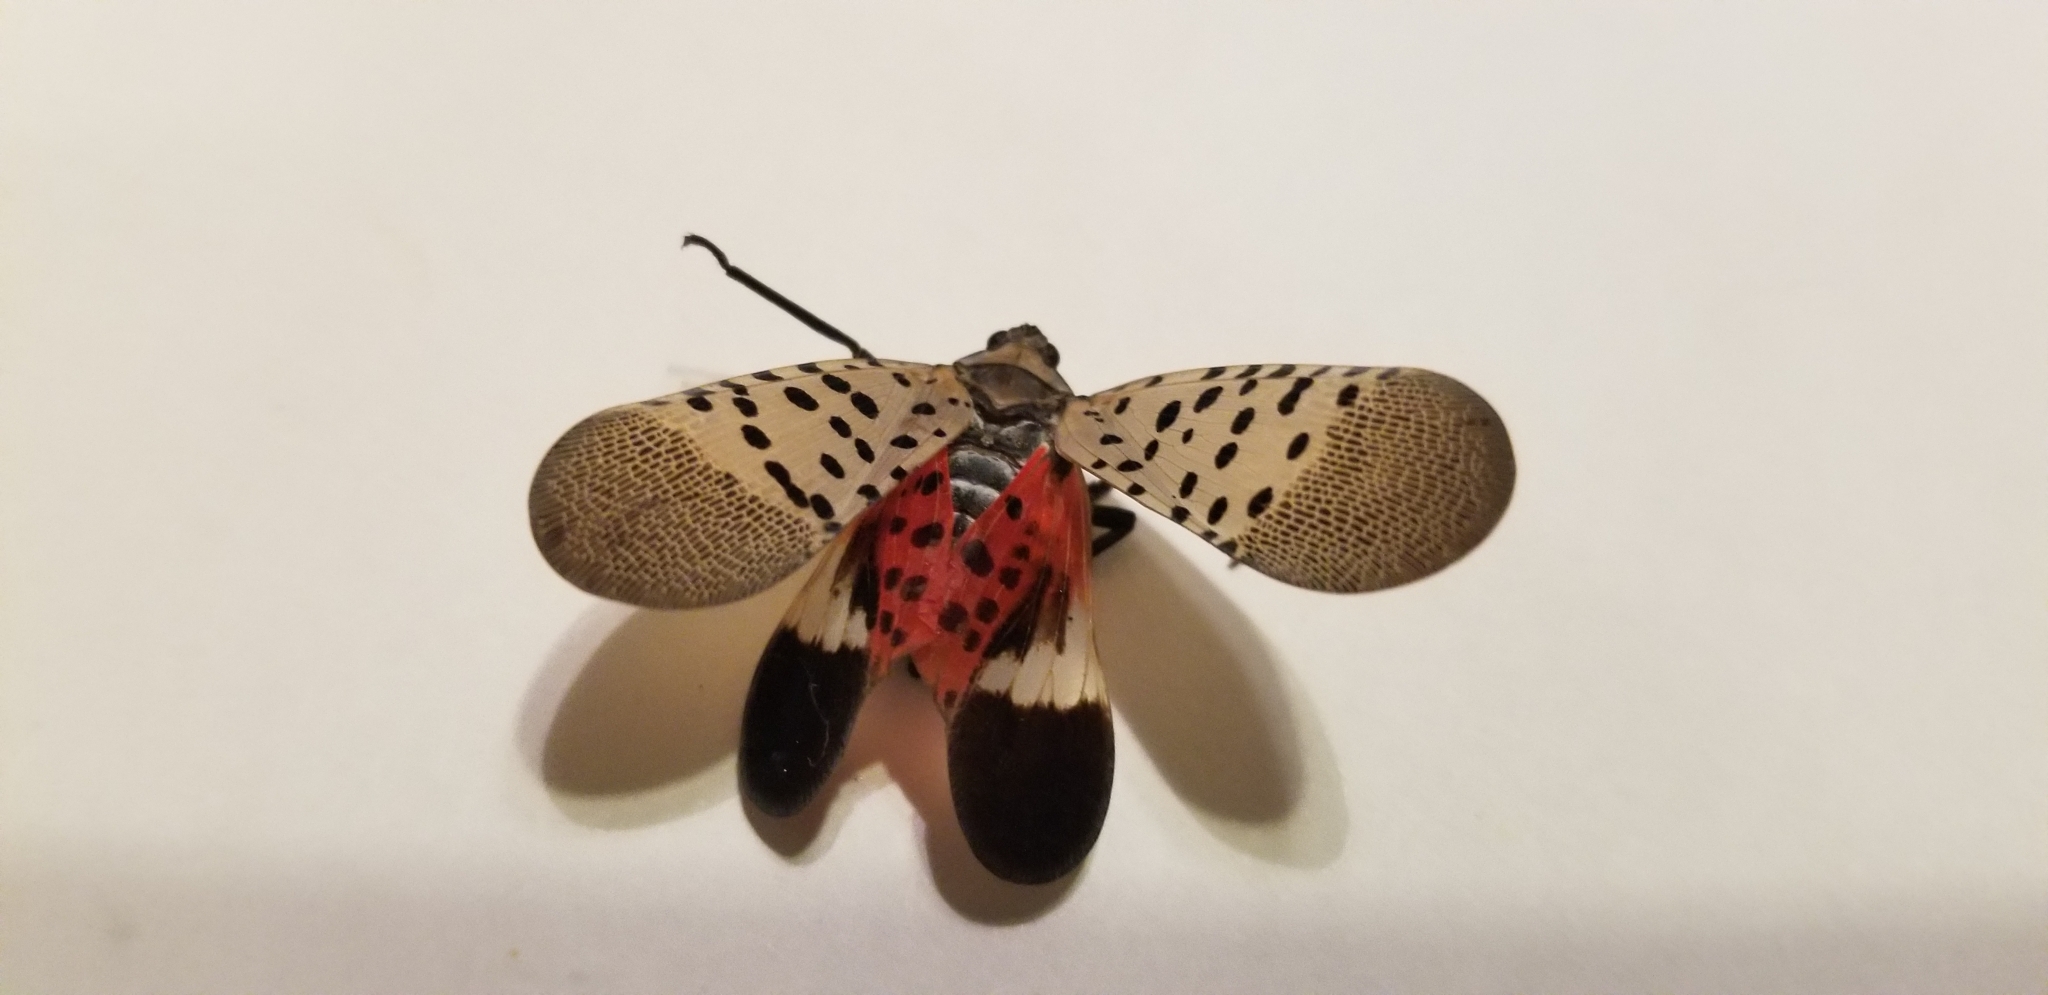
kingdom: Animalia
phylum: Arthropoda
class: Insecta
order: Hemiptera
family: Fulgoridae
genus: Lycorma
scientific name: Lycorma delicatula
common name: Spotted lanternfly
